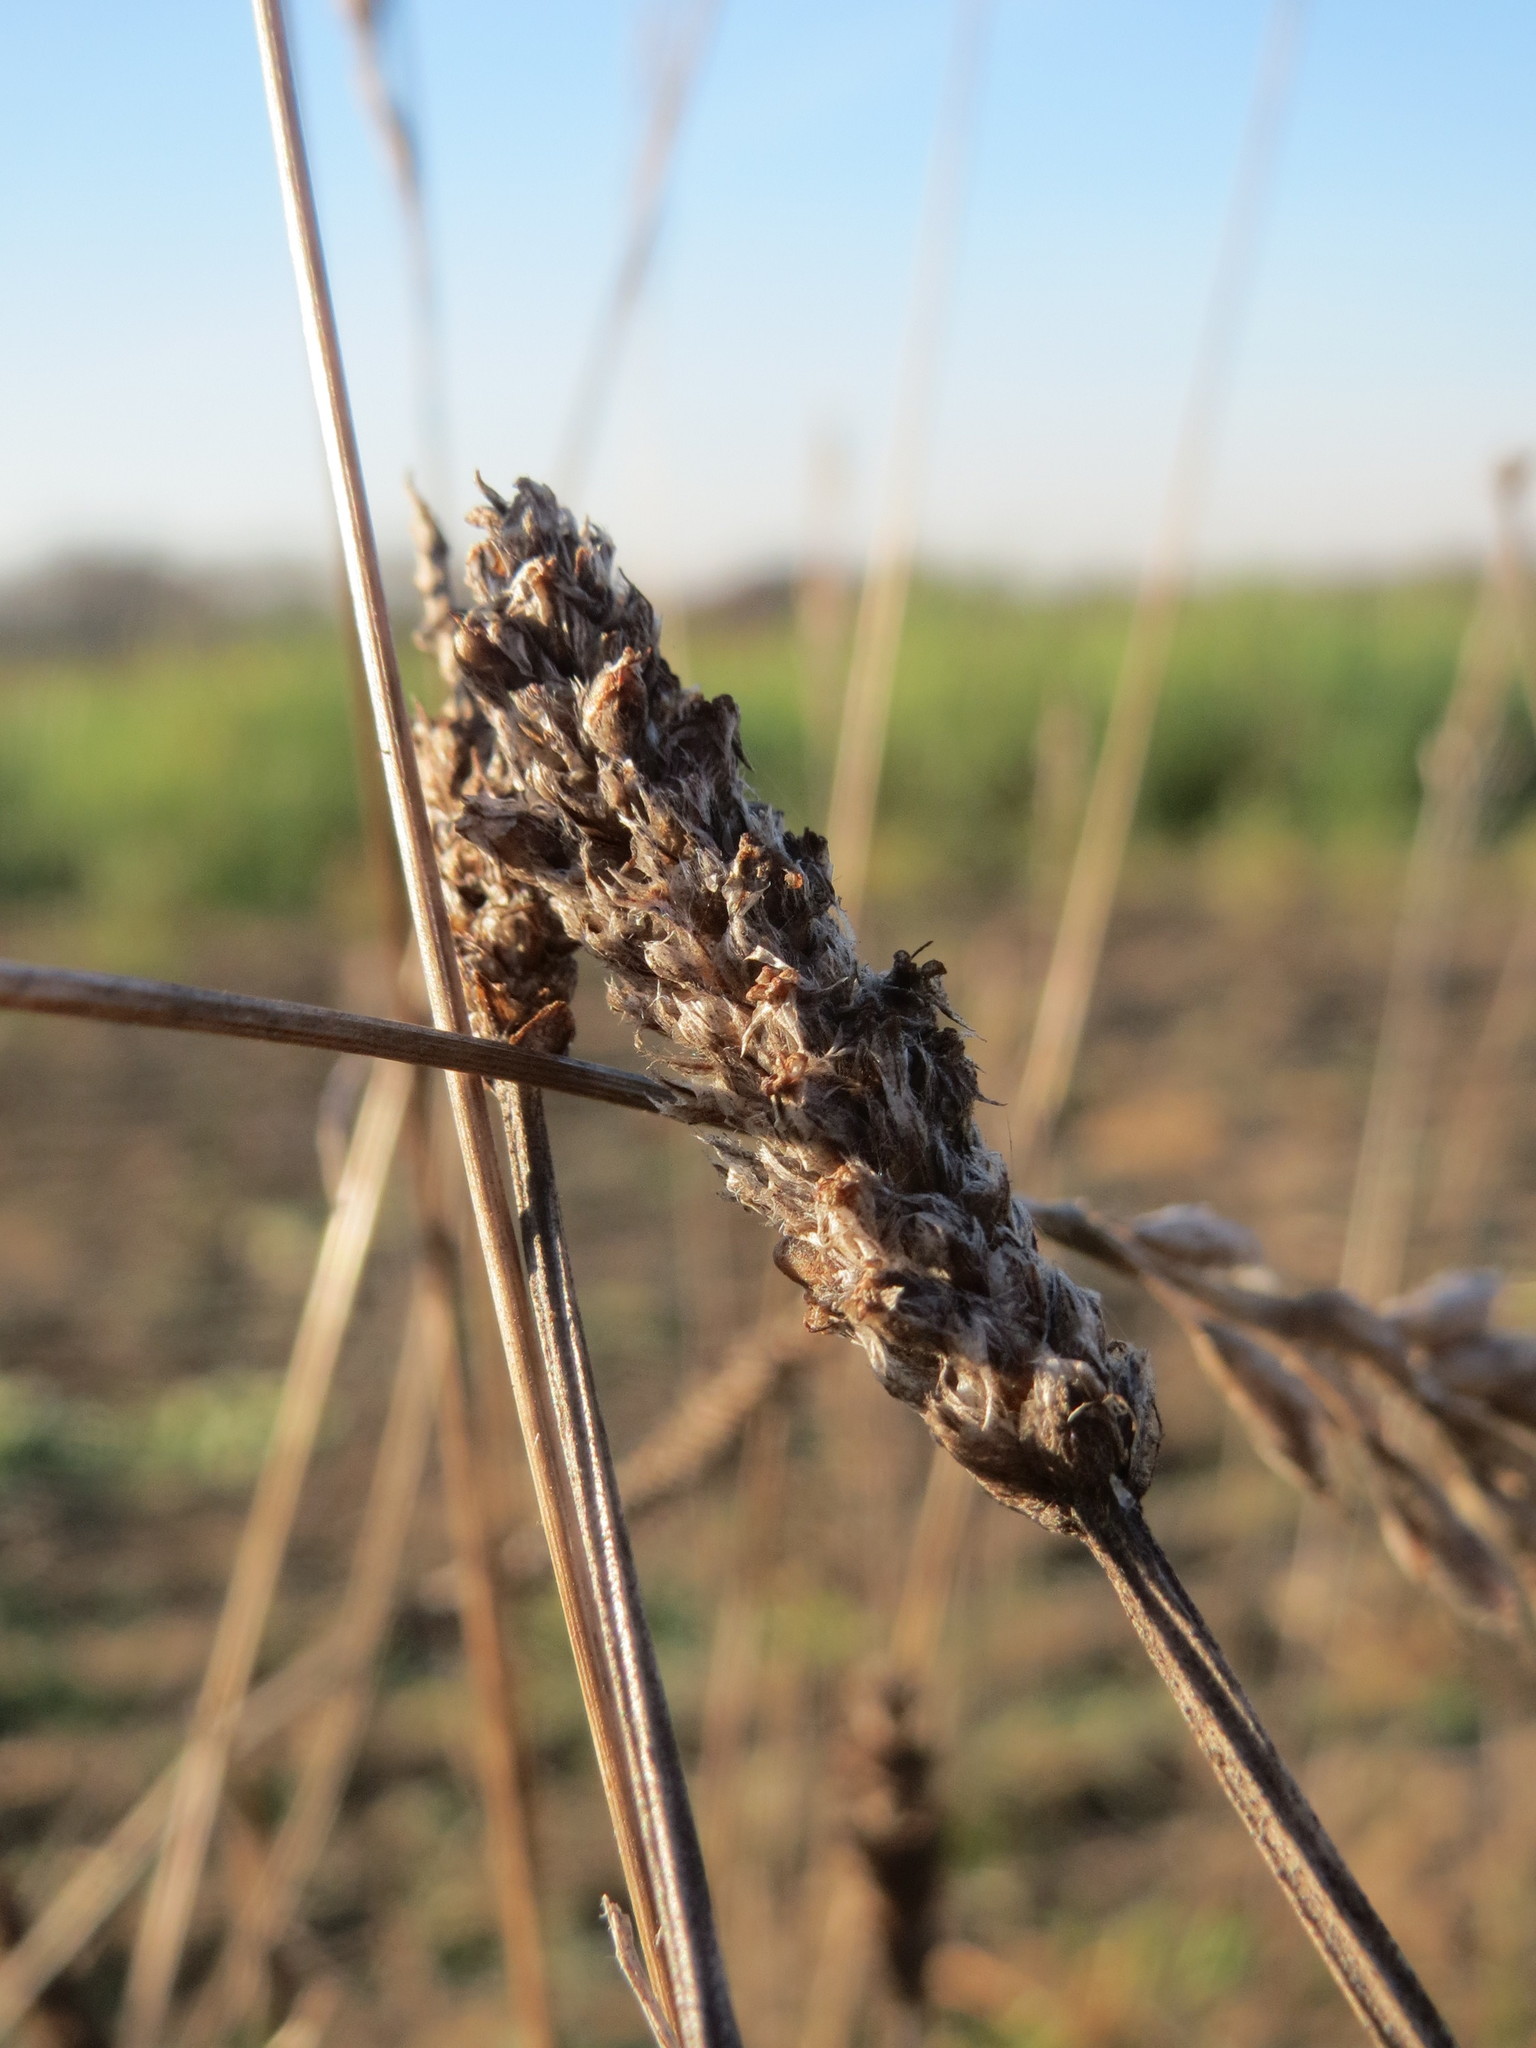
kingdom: Plantae
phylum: Tracheophyta
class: Magnoliopsida
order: Lamiales
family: Plantaginaceae
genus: Plantago
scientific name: Plantago lanceolata
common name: Ribwort plantain
